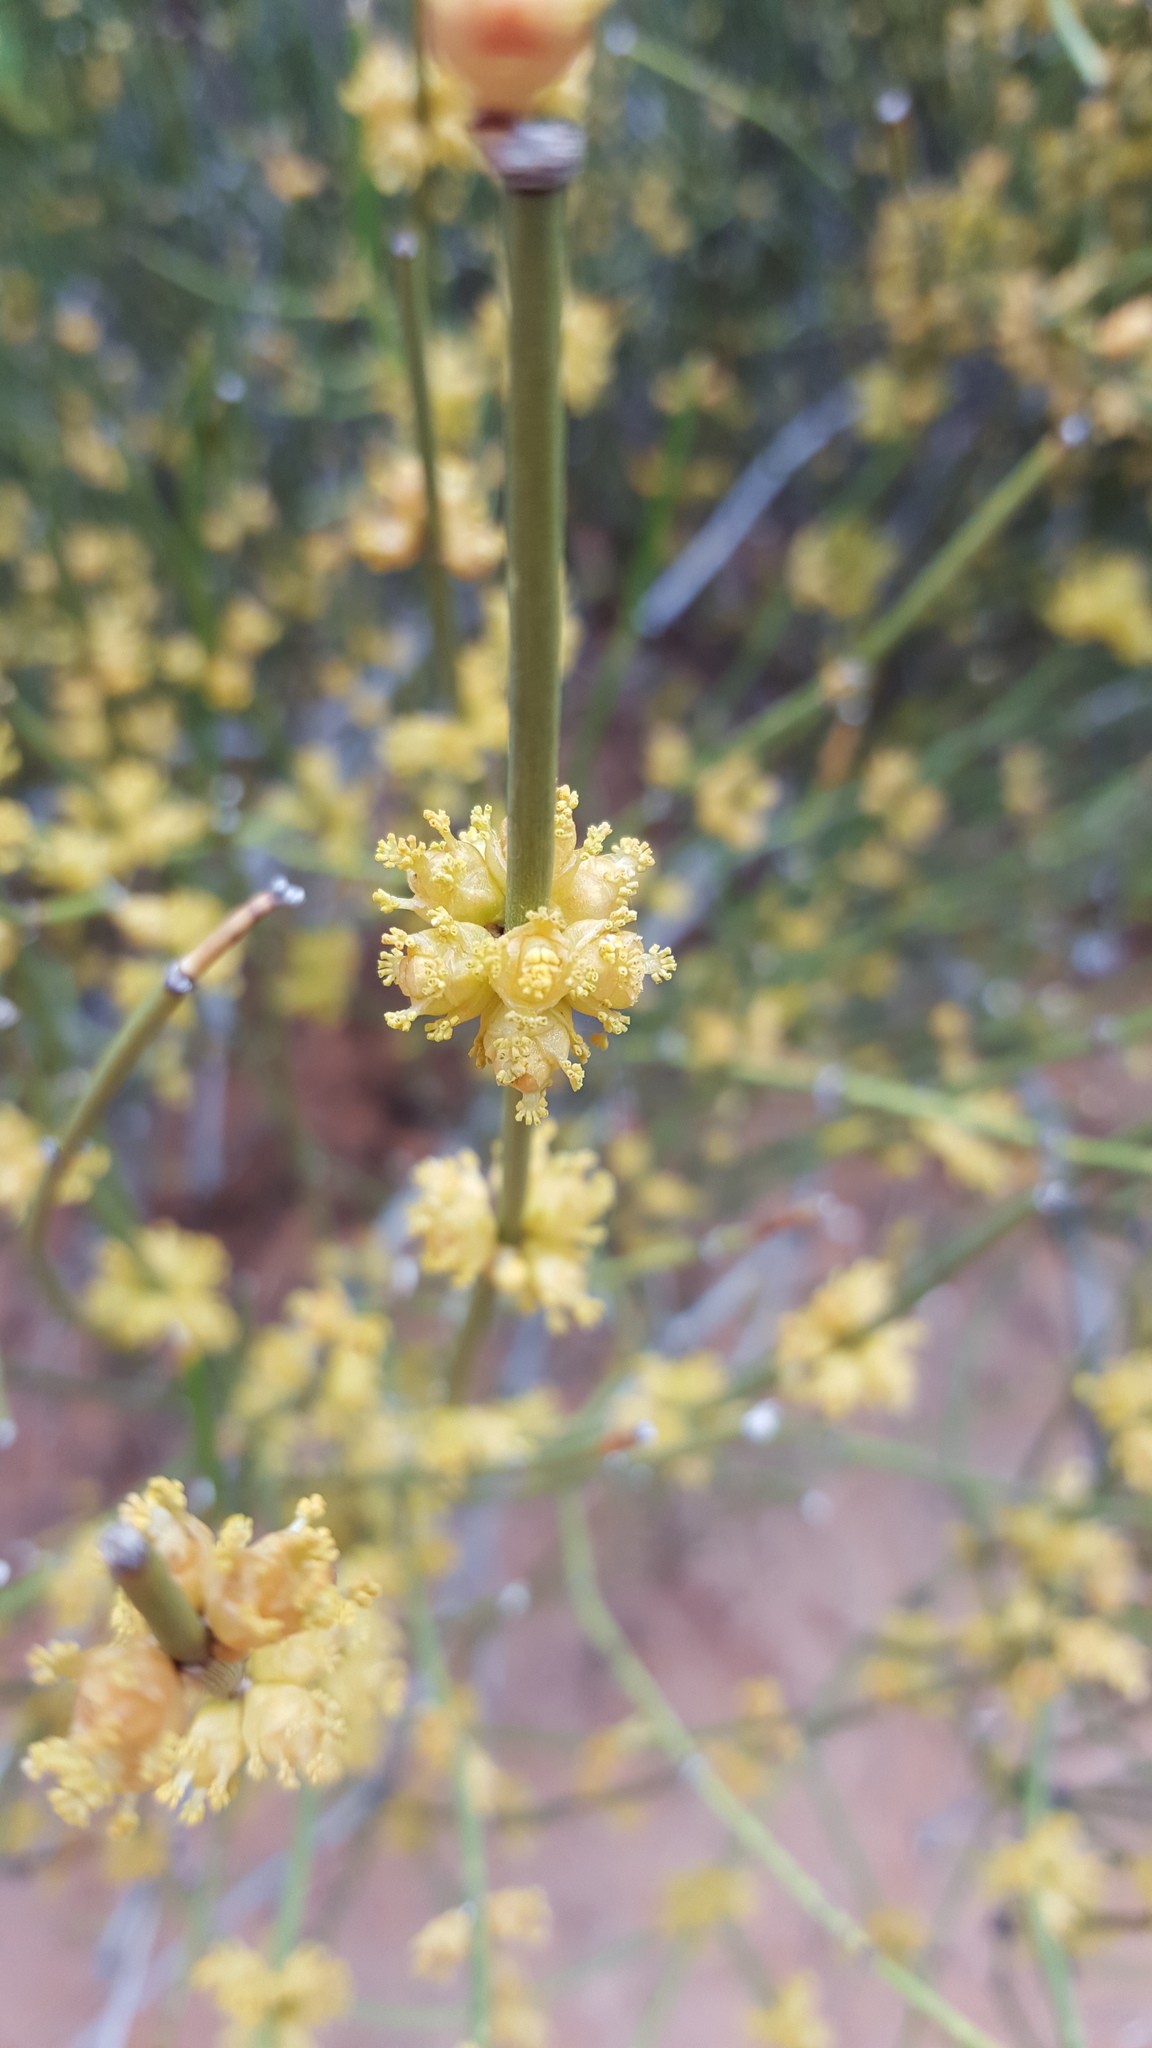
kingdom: Plantae
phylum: Tracheophyta
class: Gnetopsida
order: Ephedrales
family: Ephedraceae
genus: Ephedra
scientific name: Ephedra viridis
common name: Green ephedra
